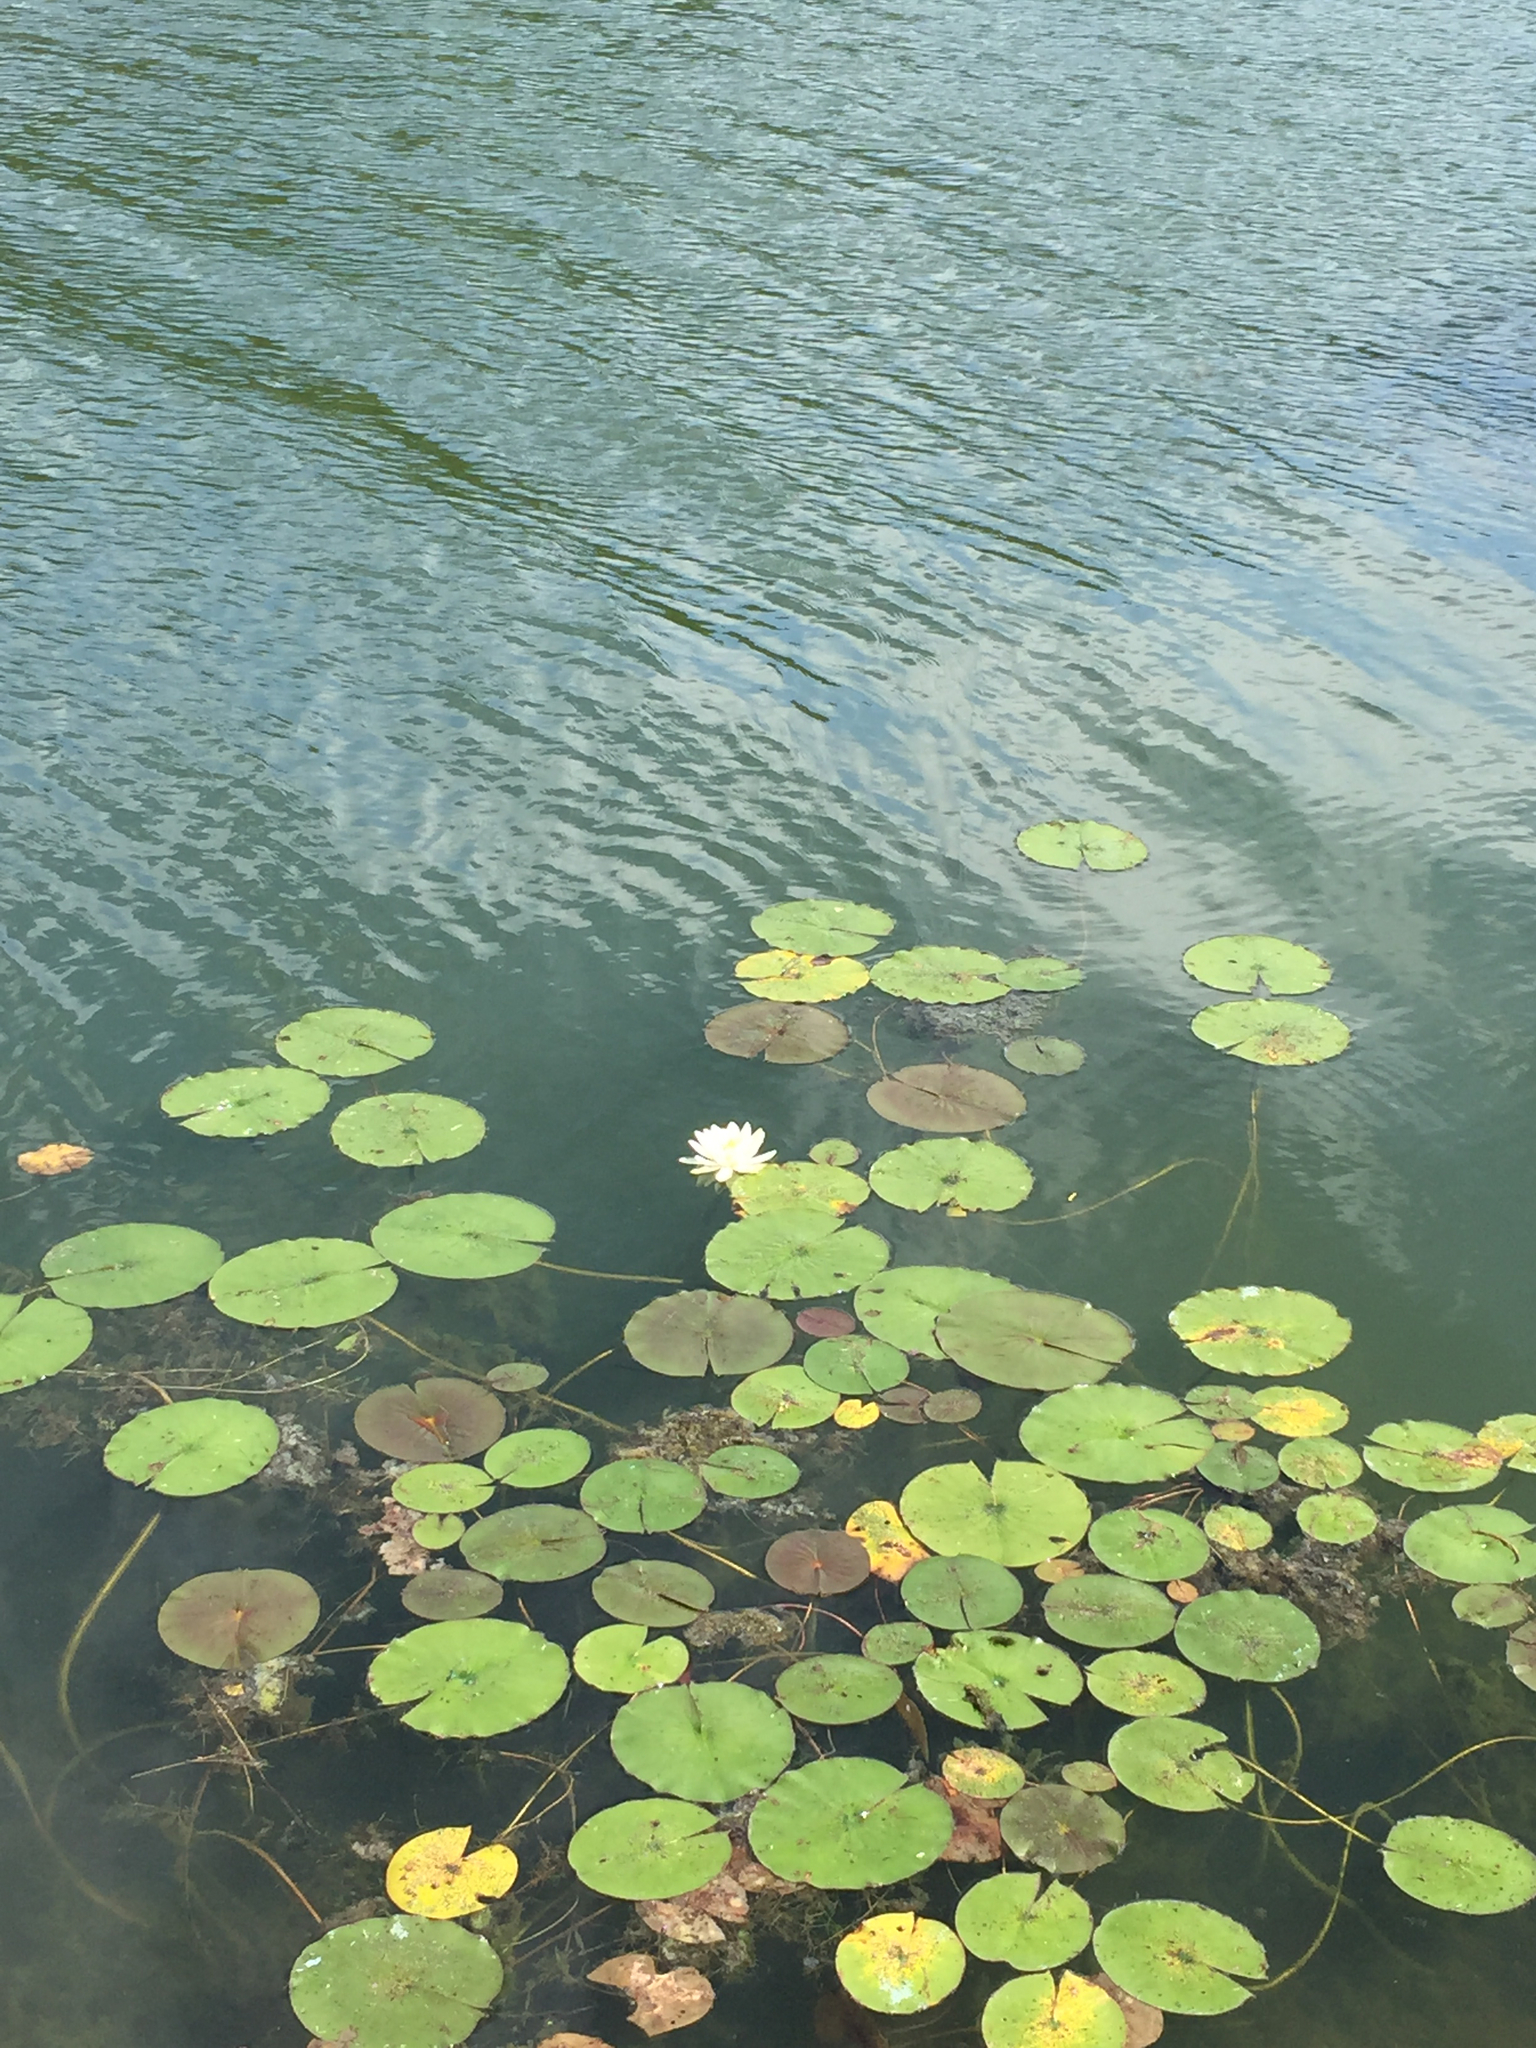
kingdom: Plantae
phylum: Tracheophyta
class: Magnoliopsida
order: Nymphaeales
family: Nymphaeaceae
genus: Nymphaea
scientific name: Nymphaea odorata
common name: Fragrant water-lily
